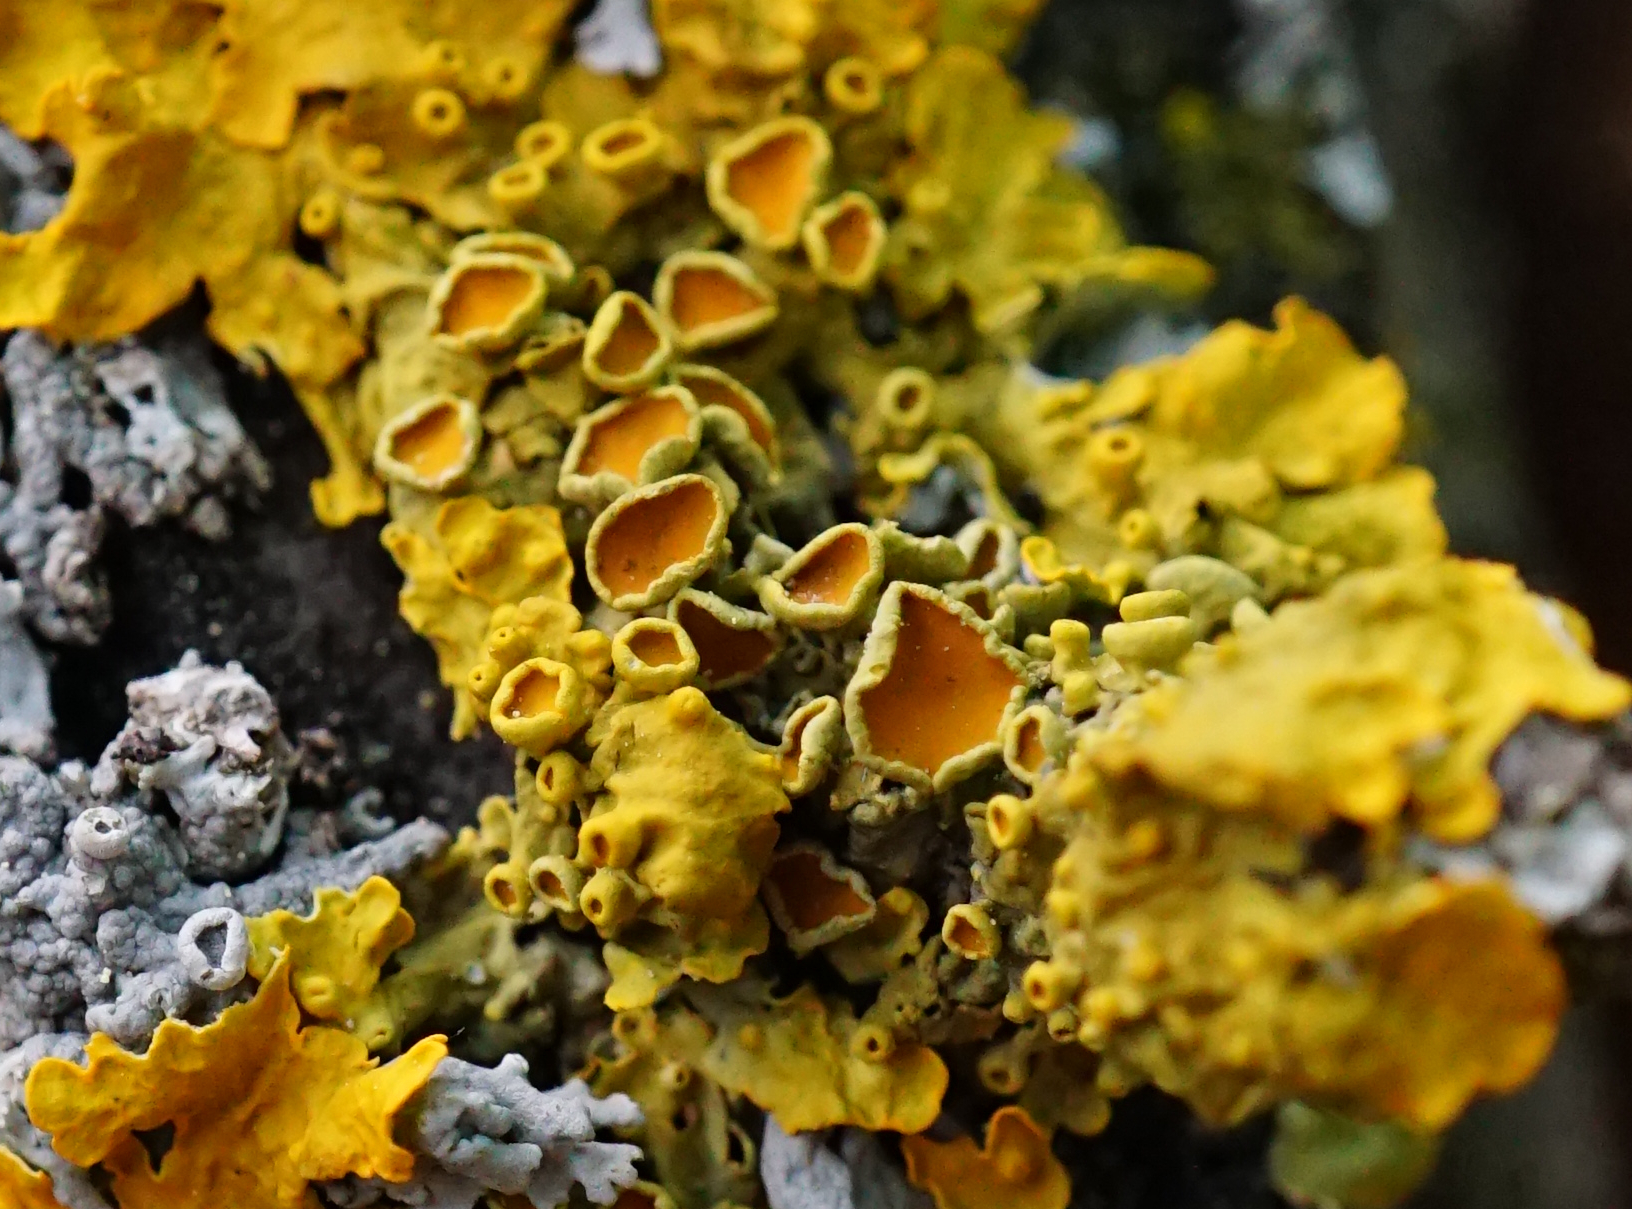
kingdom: Fungi
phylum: Ascomycota
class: Lecanoromycetes
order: Teloschistales
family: Teloschistaceae
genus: Xanthoria
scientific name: Xanthoria parietina
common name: Common orange lichen
